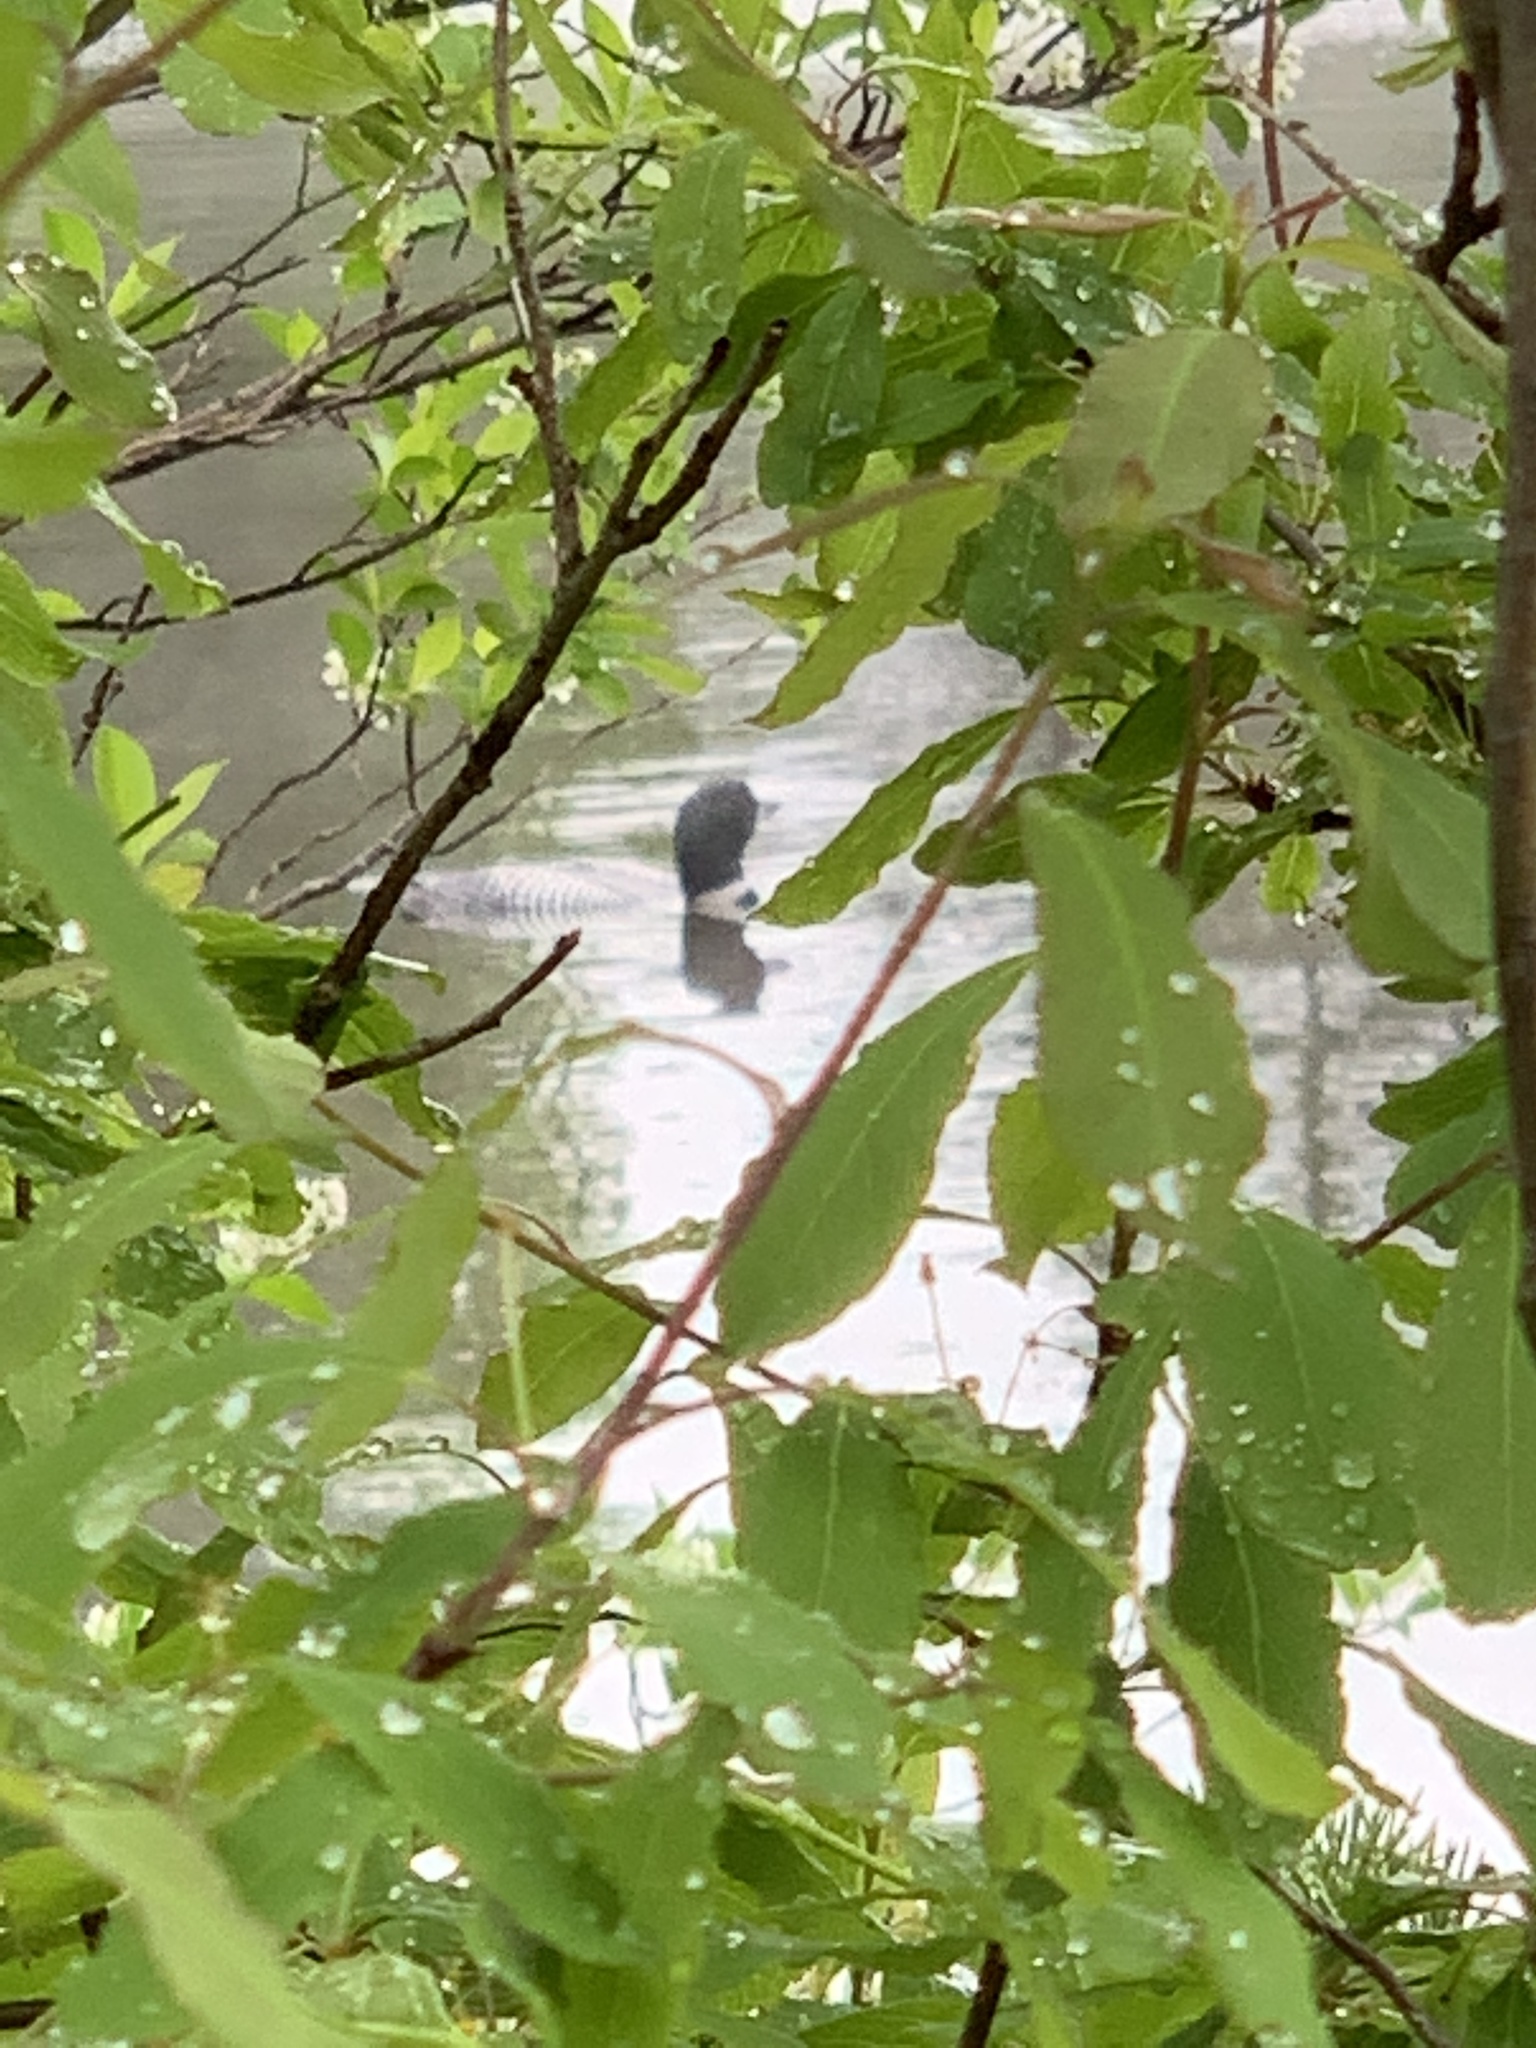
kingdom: Animalia
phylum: Chordata
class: Aves
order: Gaviiformes
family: Gaviidae
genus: Gavia
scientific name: Gavia immer
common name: Common loon
